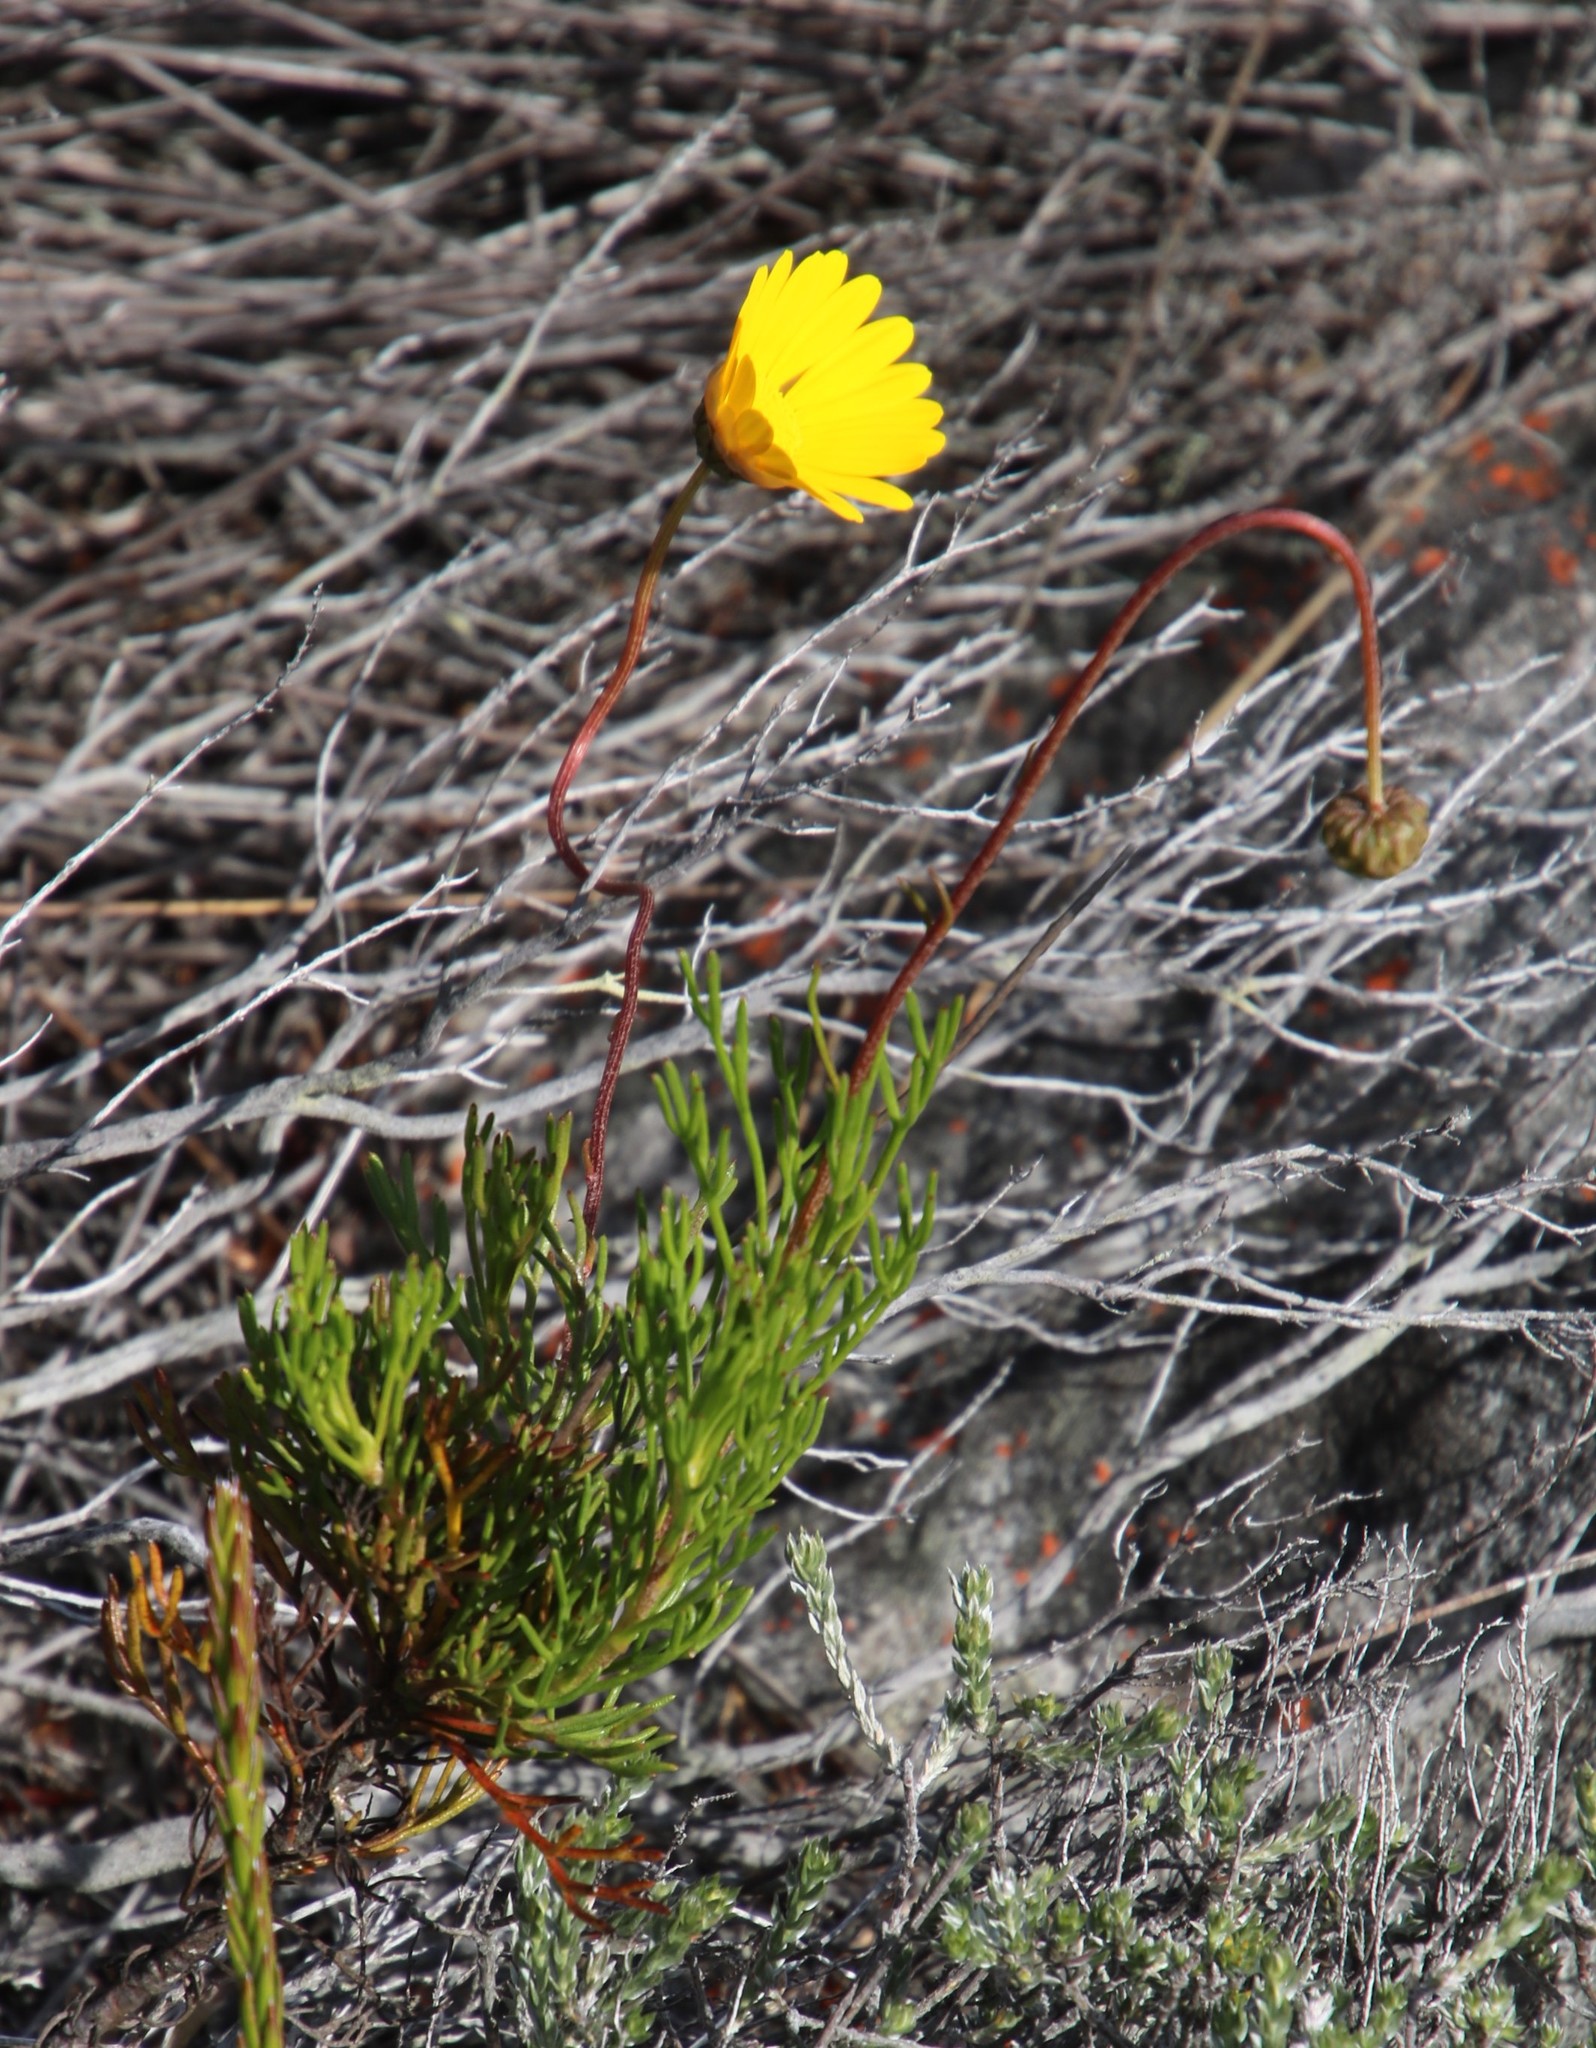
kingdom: Plantae
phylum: Tracheophyta
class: Magnoliopsida
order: Asterales
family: Asteraceae
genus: Ursinia
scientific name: Ursinia paleacea
